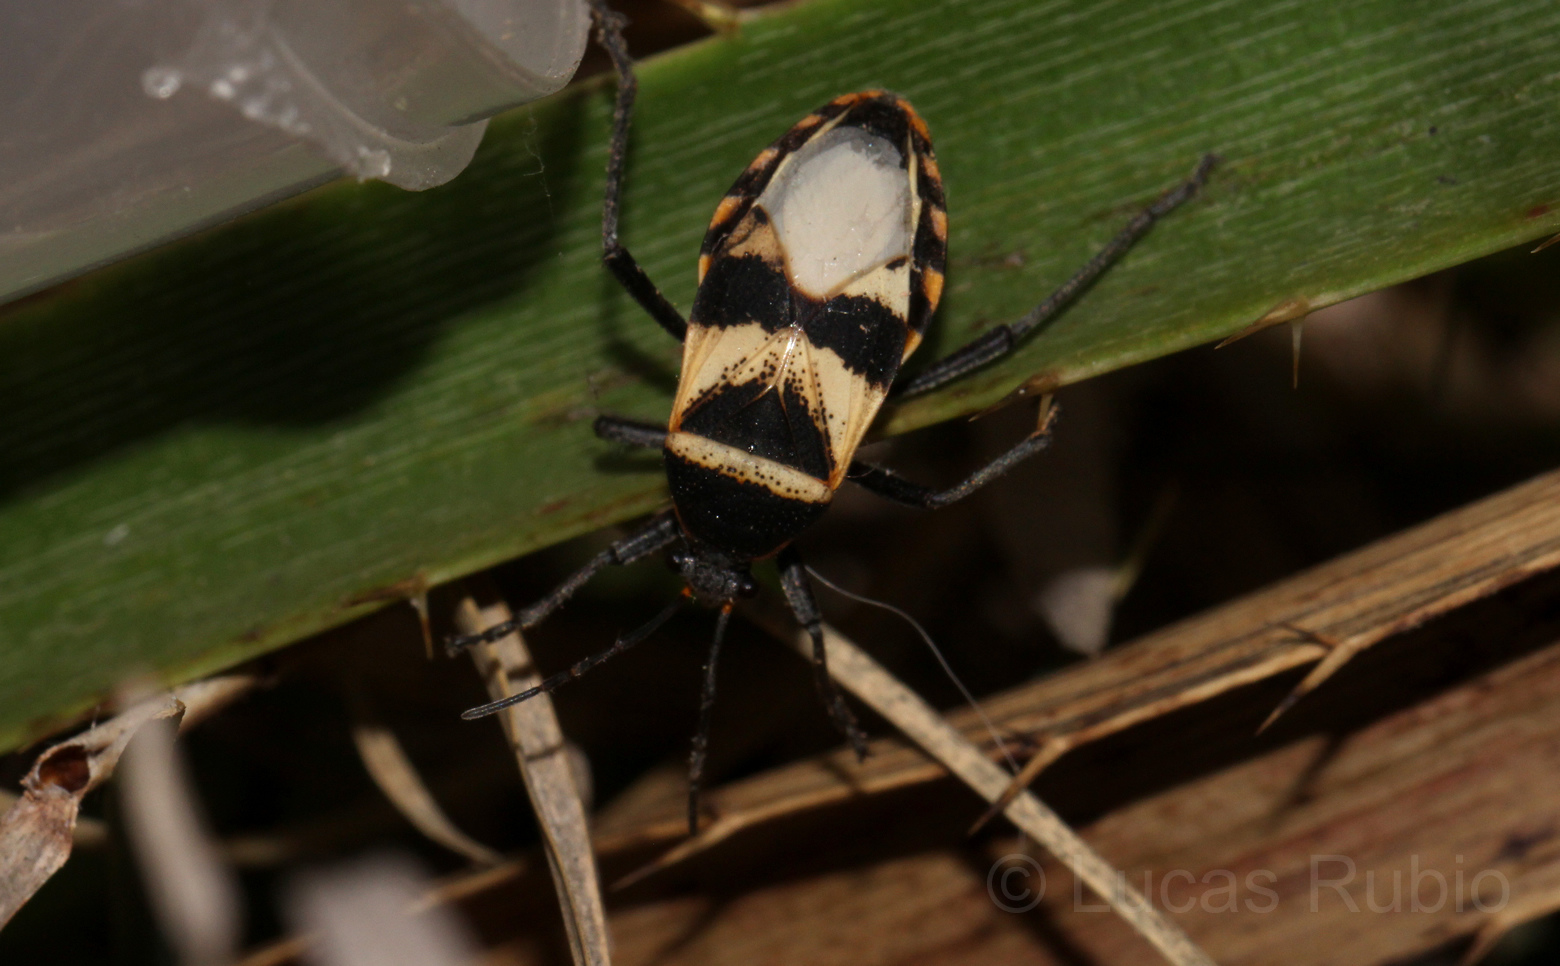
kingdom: Animalia
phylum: Arthropoda
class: Insecta
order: Hemiptera
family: Largidae
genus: Largus
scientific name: Largus fasciatus
